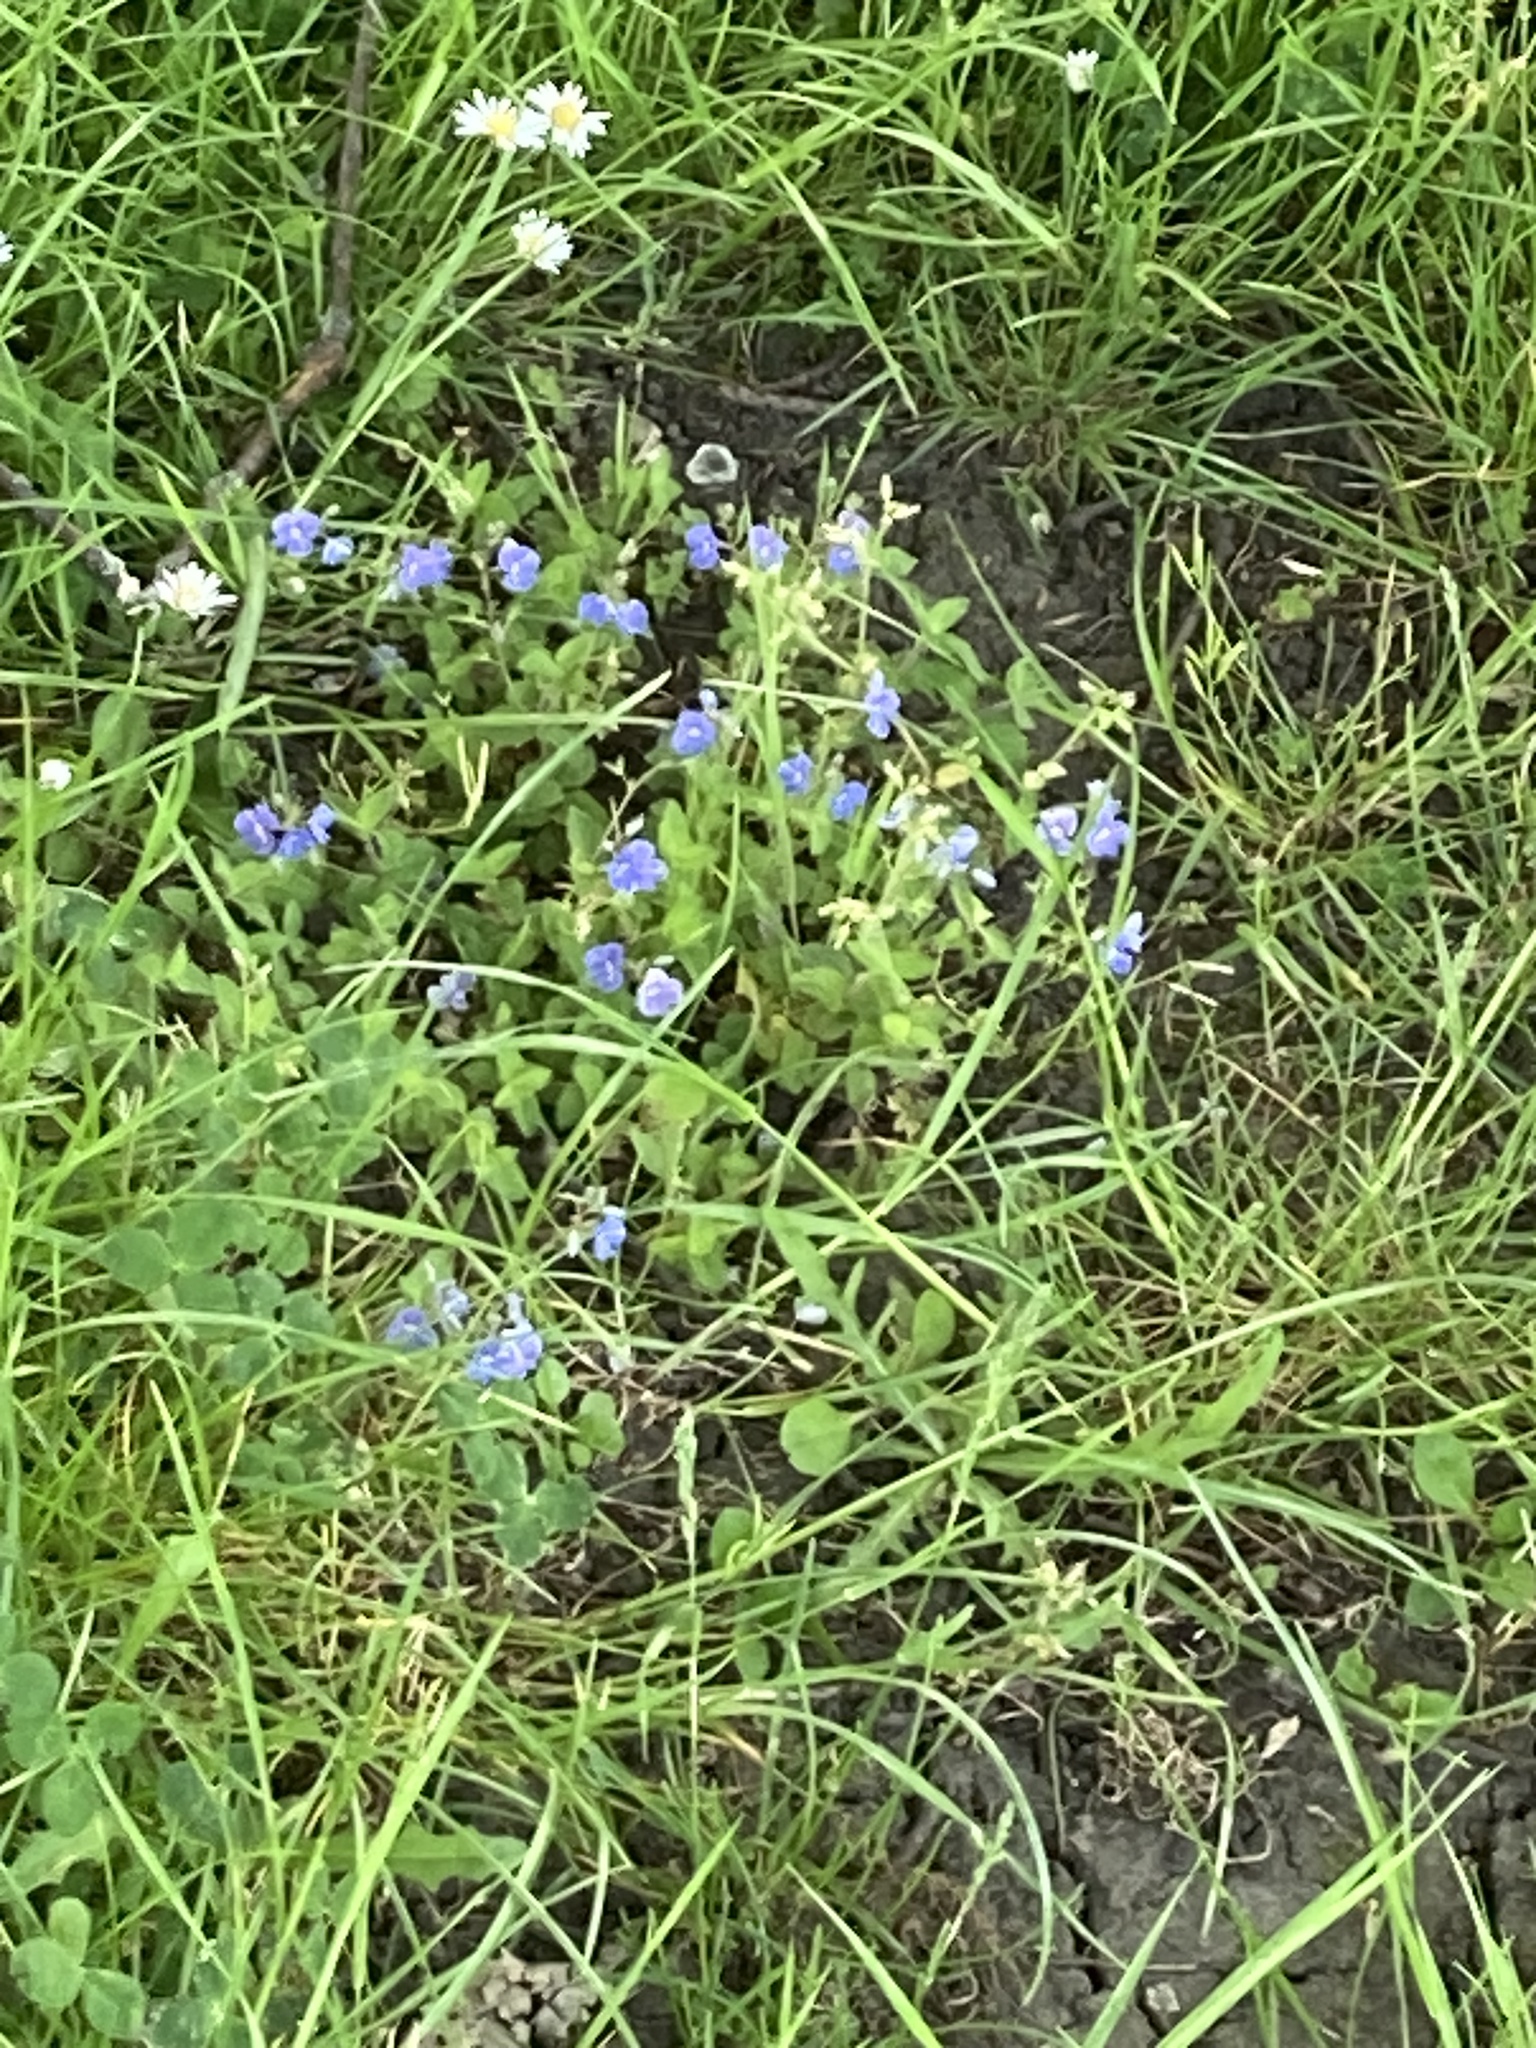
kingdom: Plantae
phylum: Tracheophyta
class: Magnoliopsida
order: Lamiales
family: Plantaginaceae
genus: Veronica
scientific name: Veronica chamaedrys
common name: Germander speedwell
